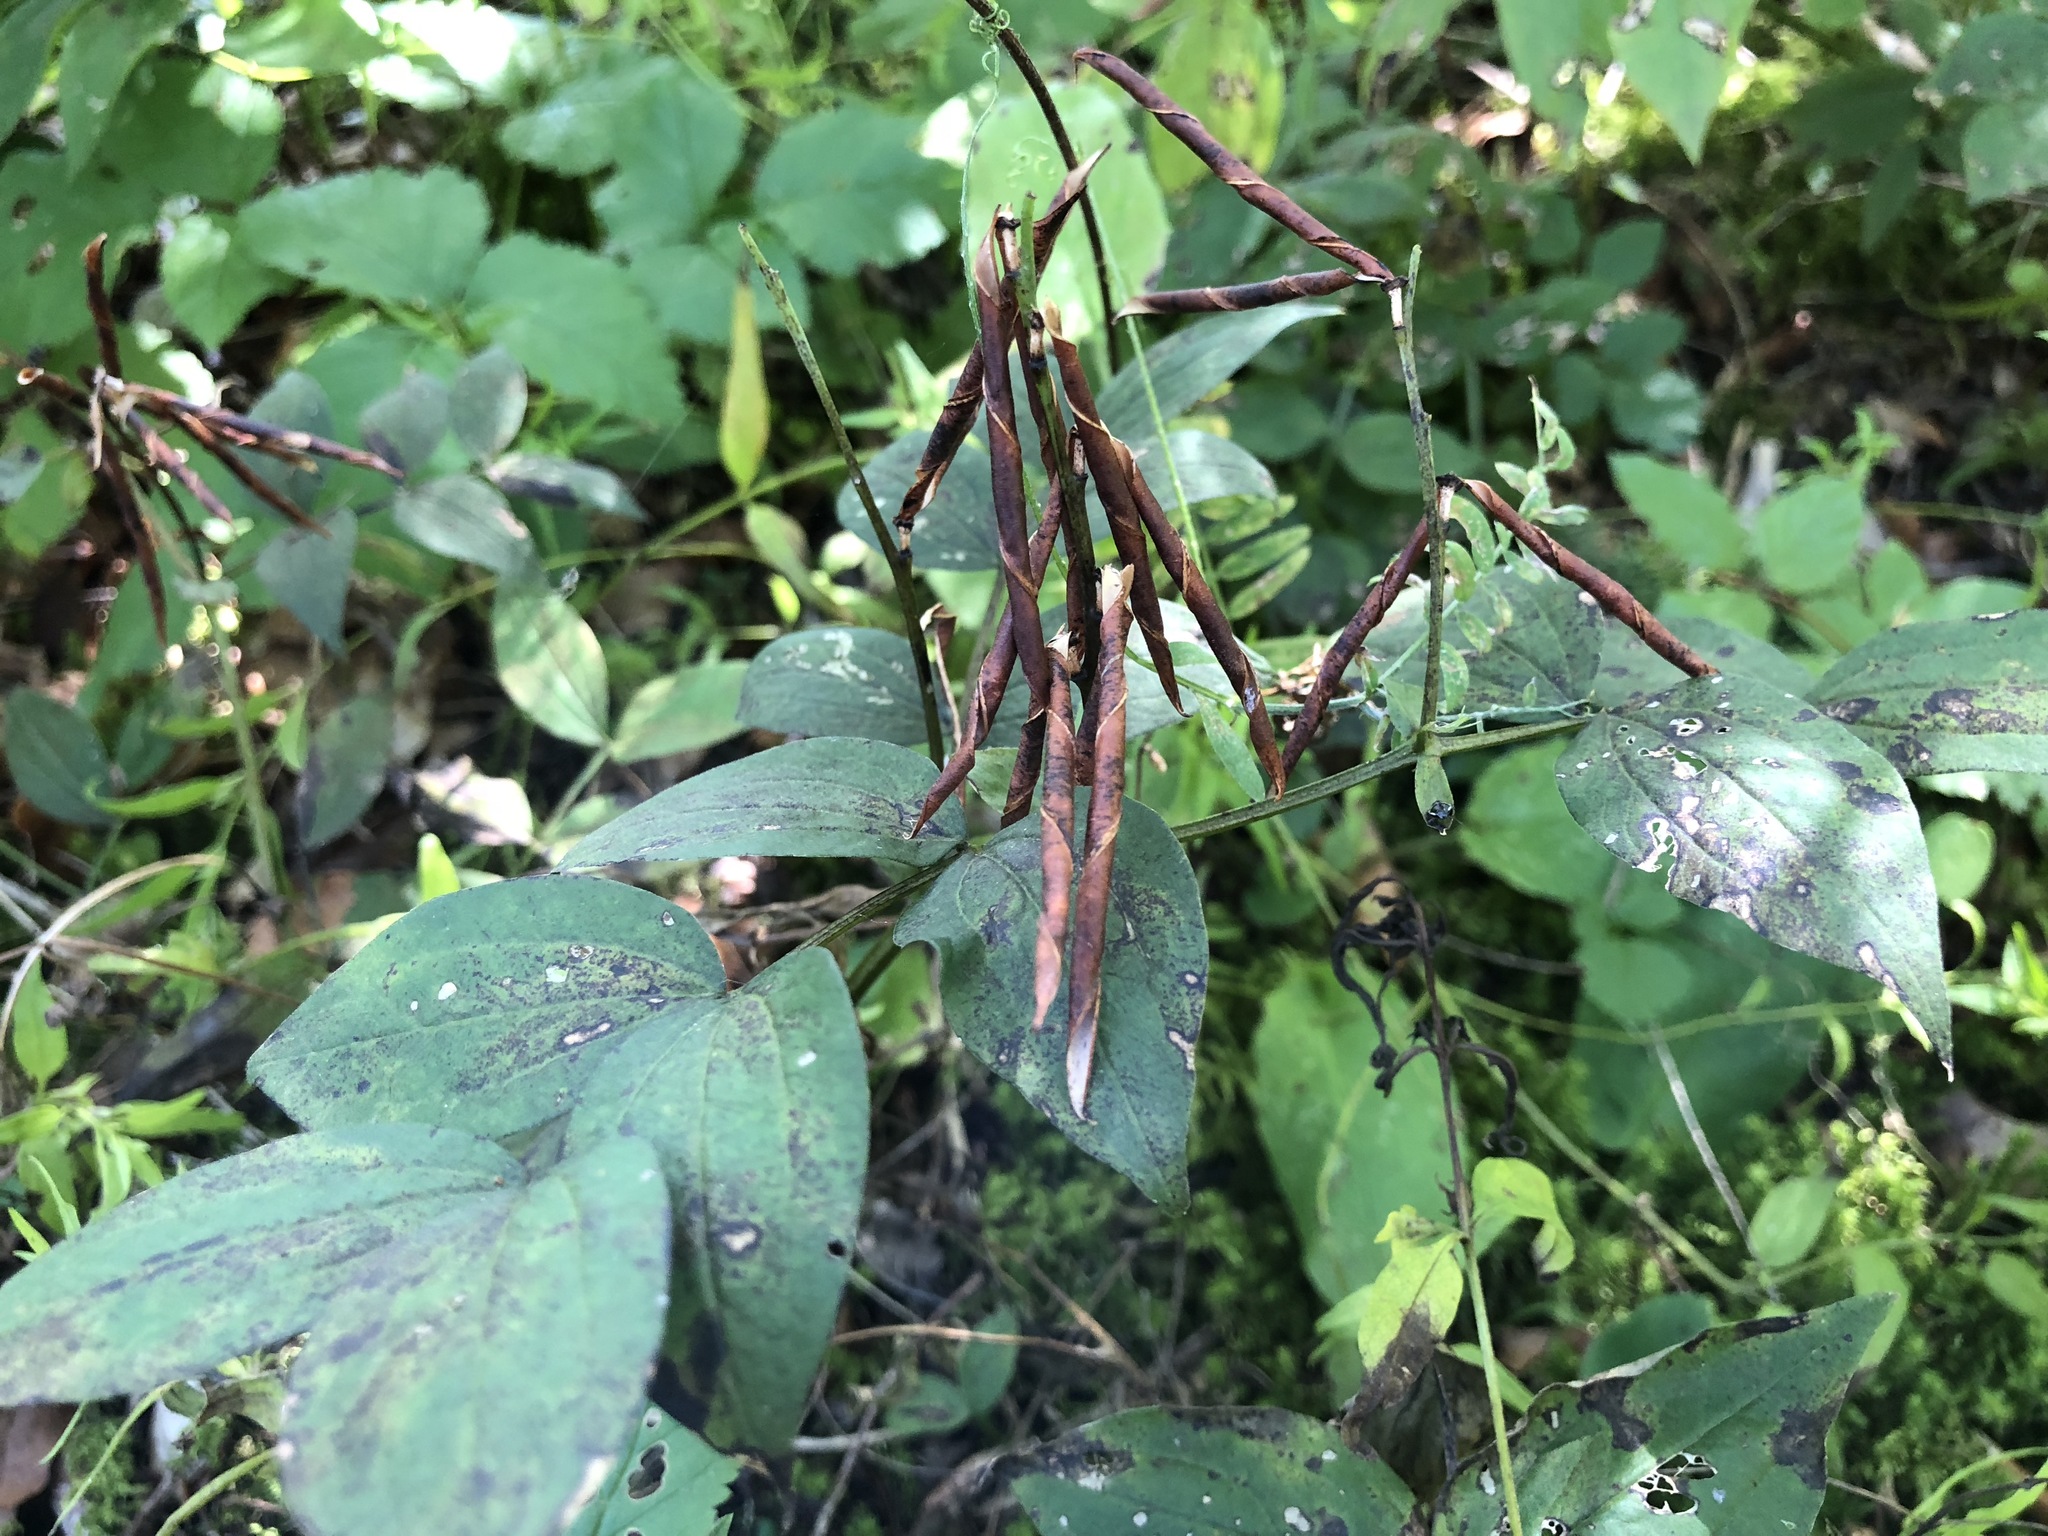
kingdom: Plantae
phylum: Tracheophyta
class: Magnoliopsida
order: Fabales
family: Fabaceae
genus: Lathyrus
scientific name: Lathyrus vernus
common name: Spring pea
